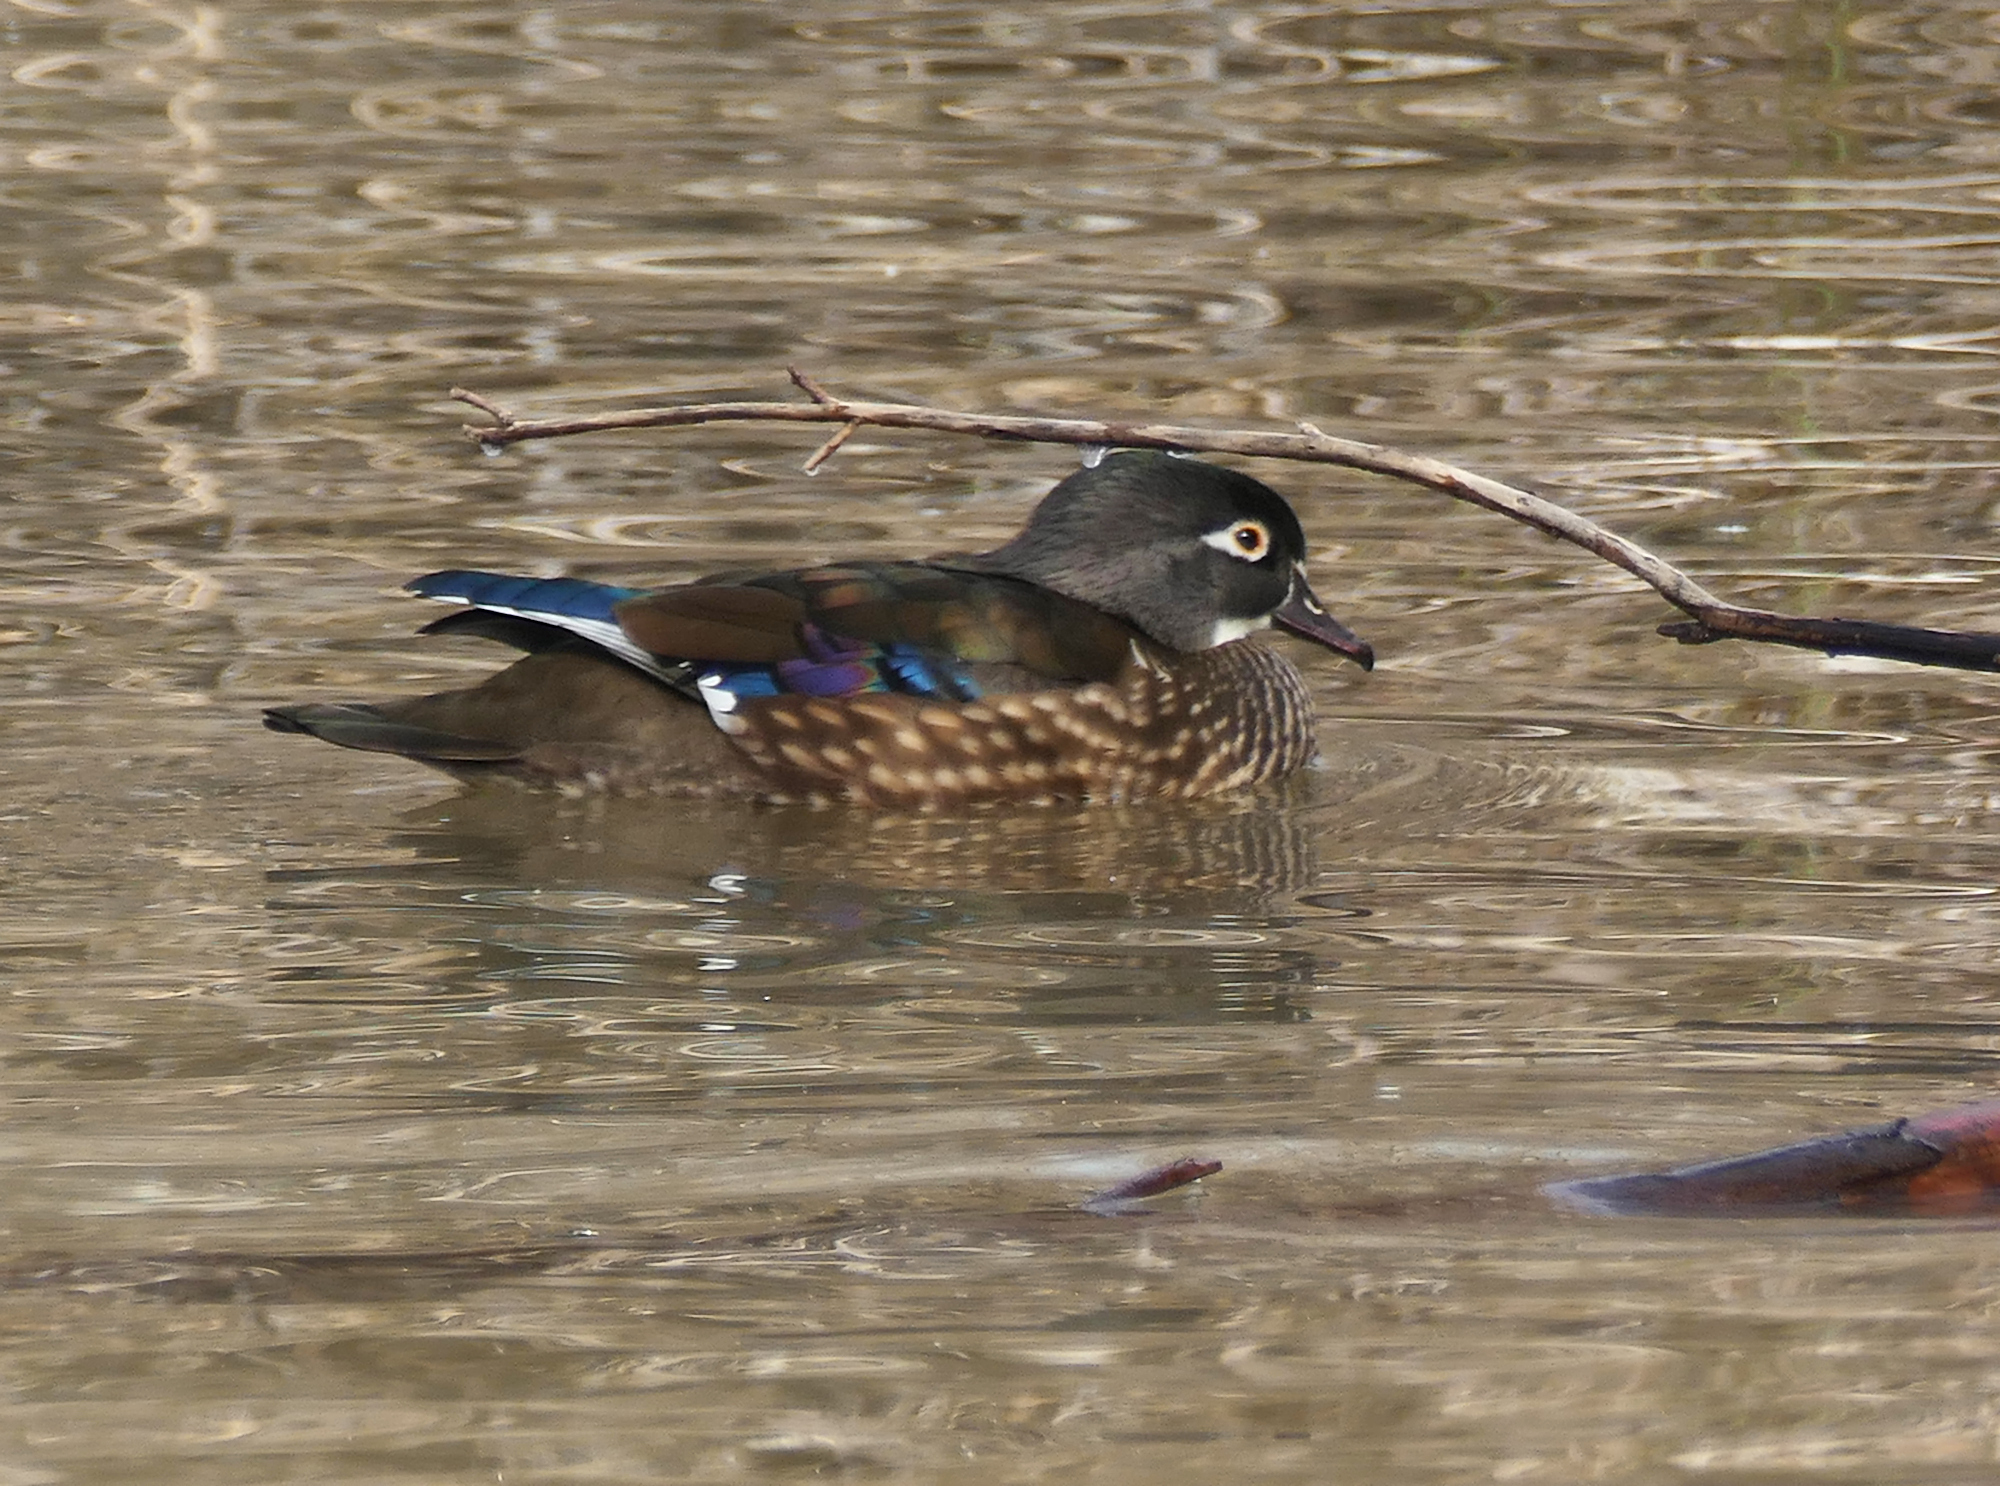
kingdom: Animalia
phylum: Chordata
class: Aves
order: Anseriformes
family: Anatidae
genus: Aix
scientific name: Aix sponsa
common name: Wood duck
